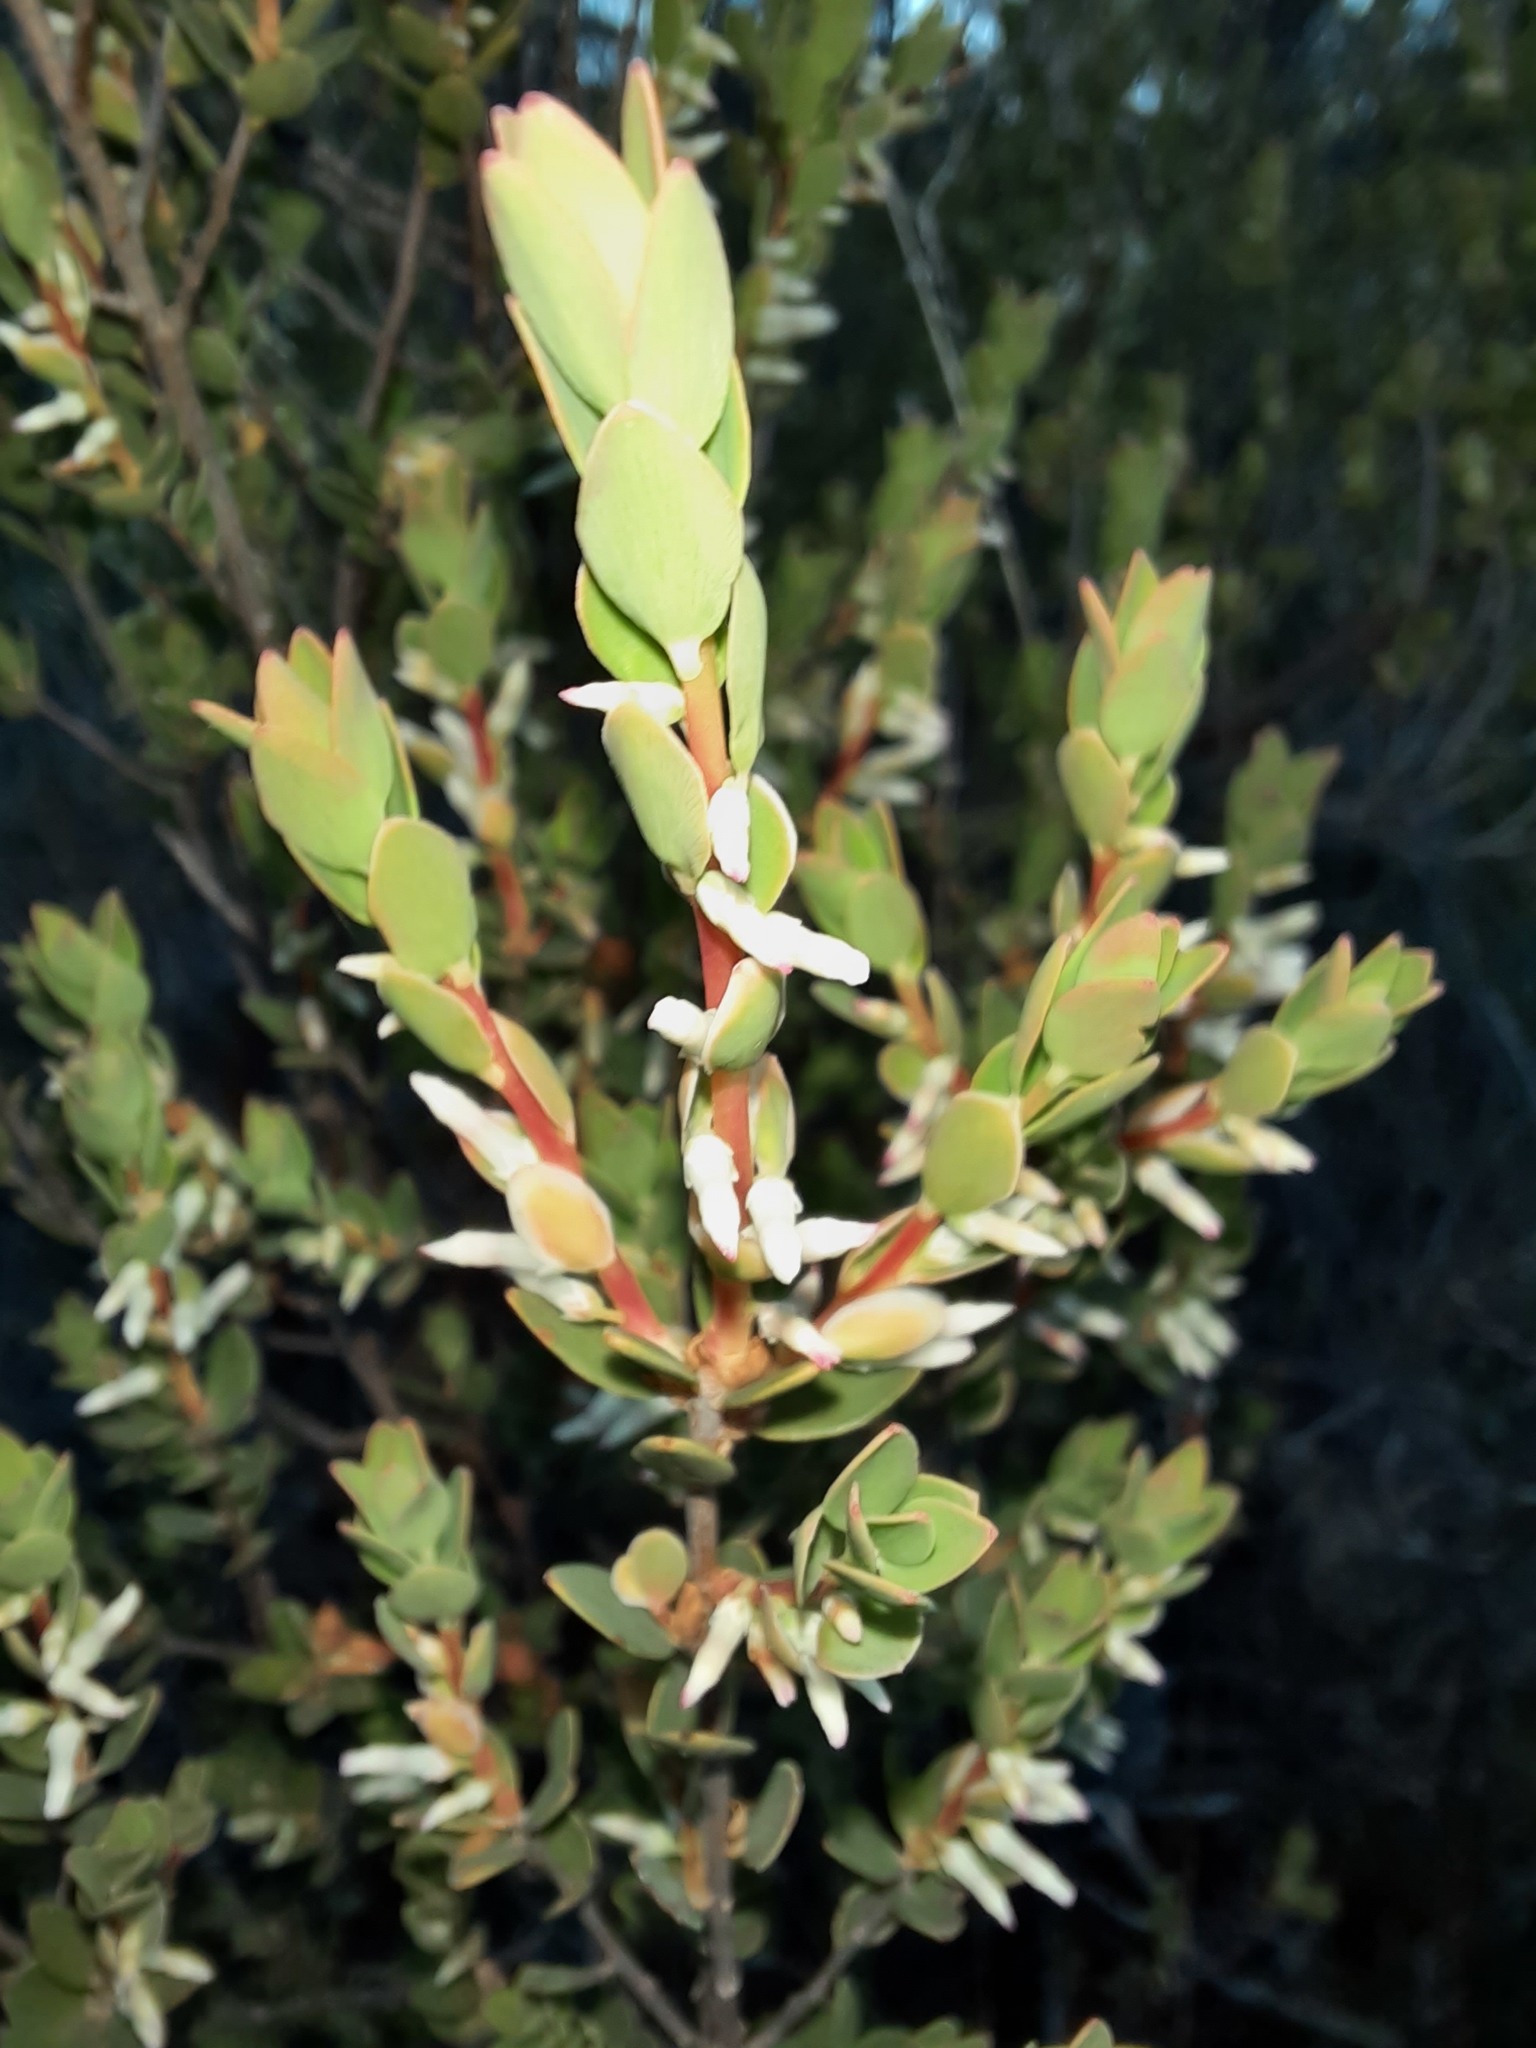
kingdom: Plantae
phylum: Tracheophyta
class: Magnoliopsida
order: Ericales
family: Ericaceae
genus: Brachyloma
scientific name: Brachyloma daphnoides
